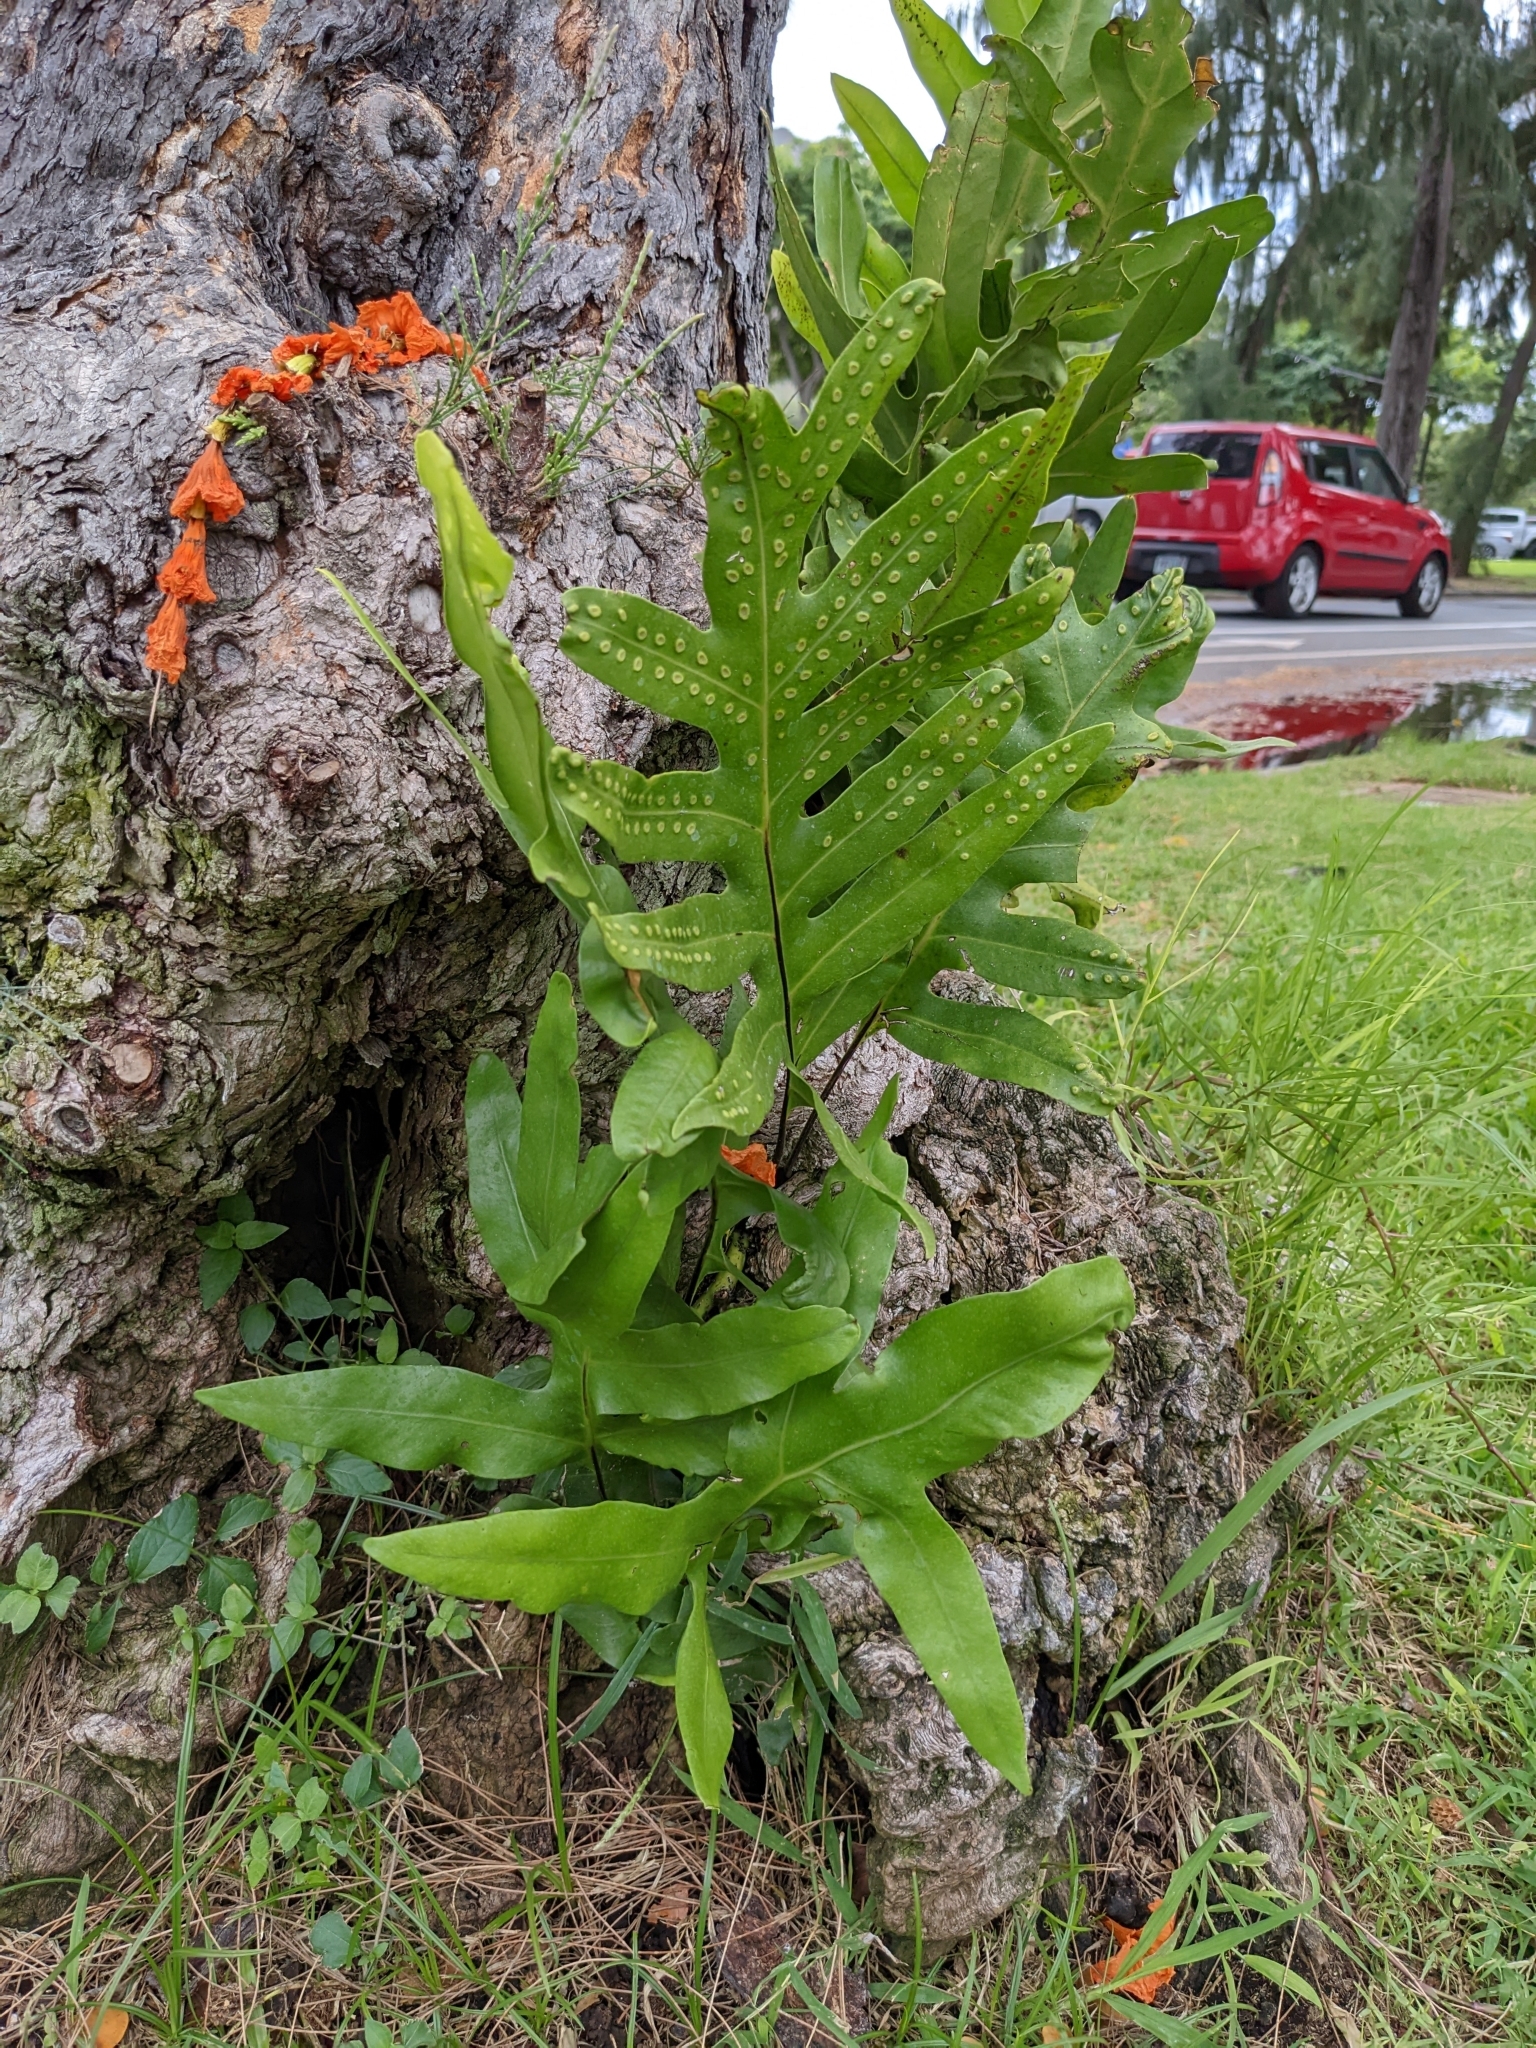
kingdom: Plantae
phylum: Tracheophyta
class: Polypodiopsida
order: Polypodiales
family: Polypodiaceae
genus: Microsorum
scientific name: Microsorum grossum
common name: Musk fern
